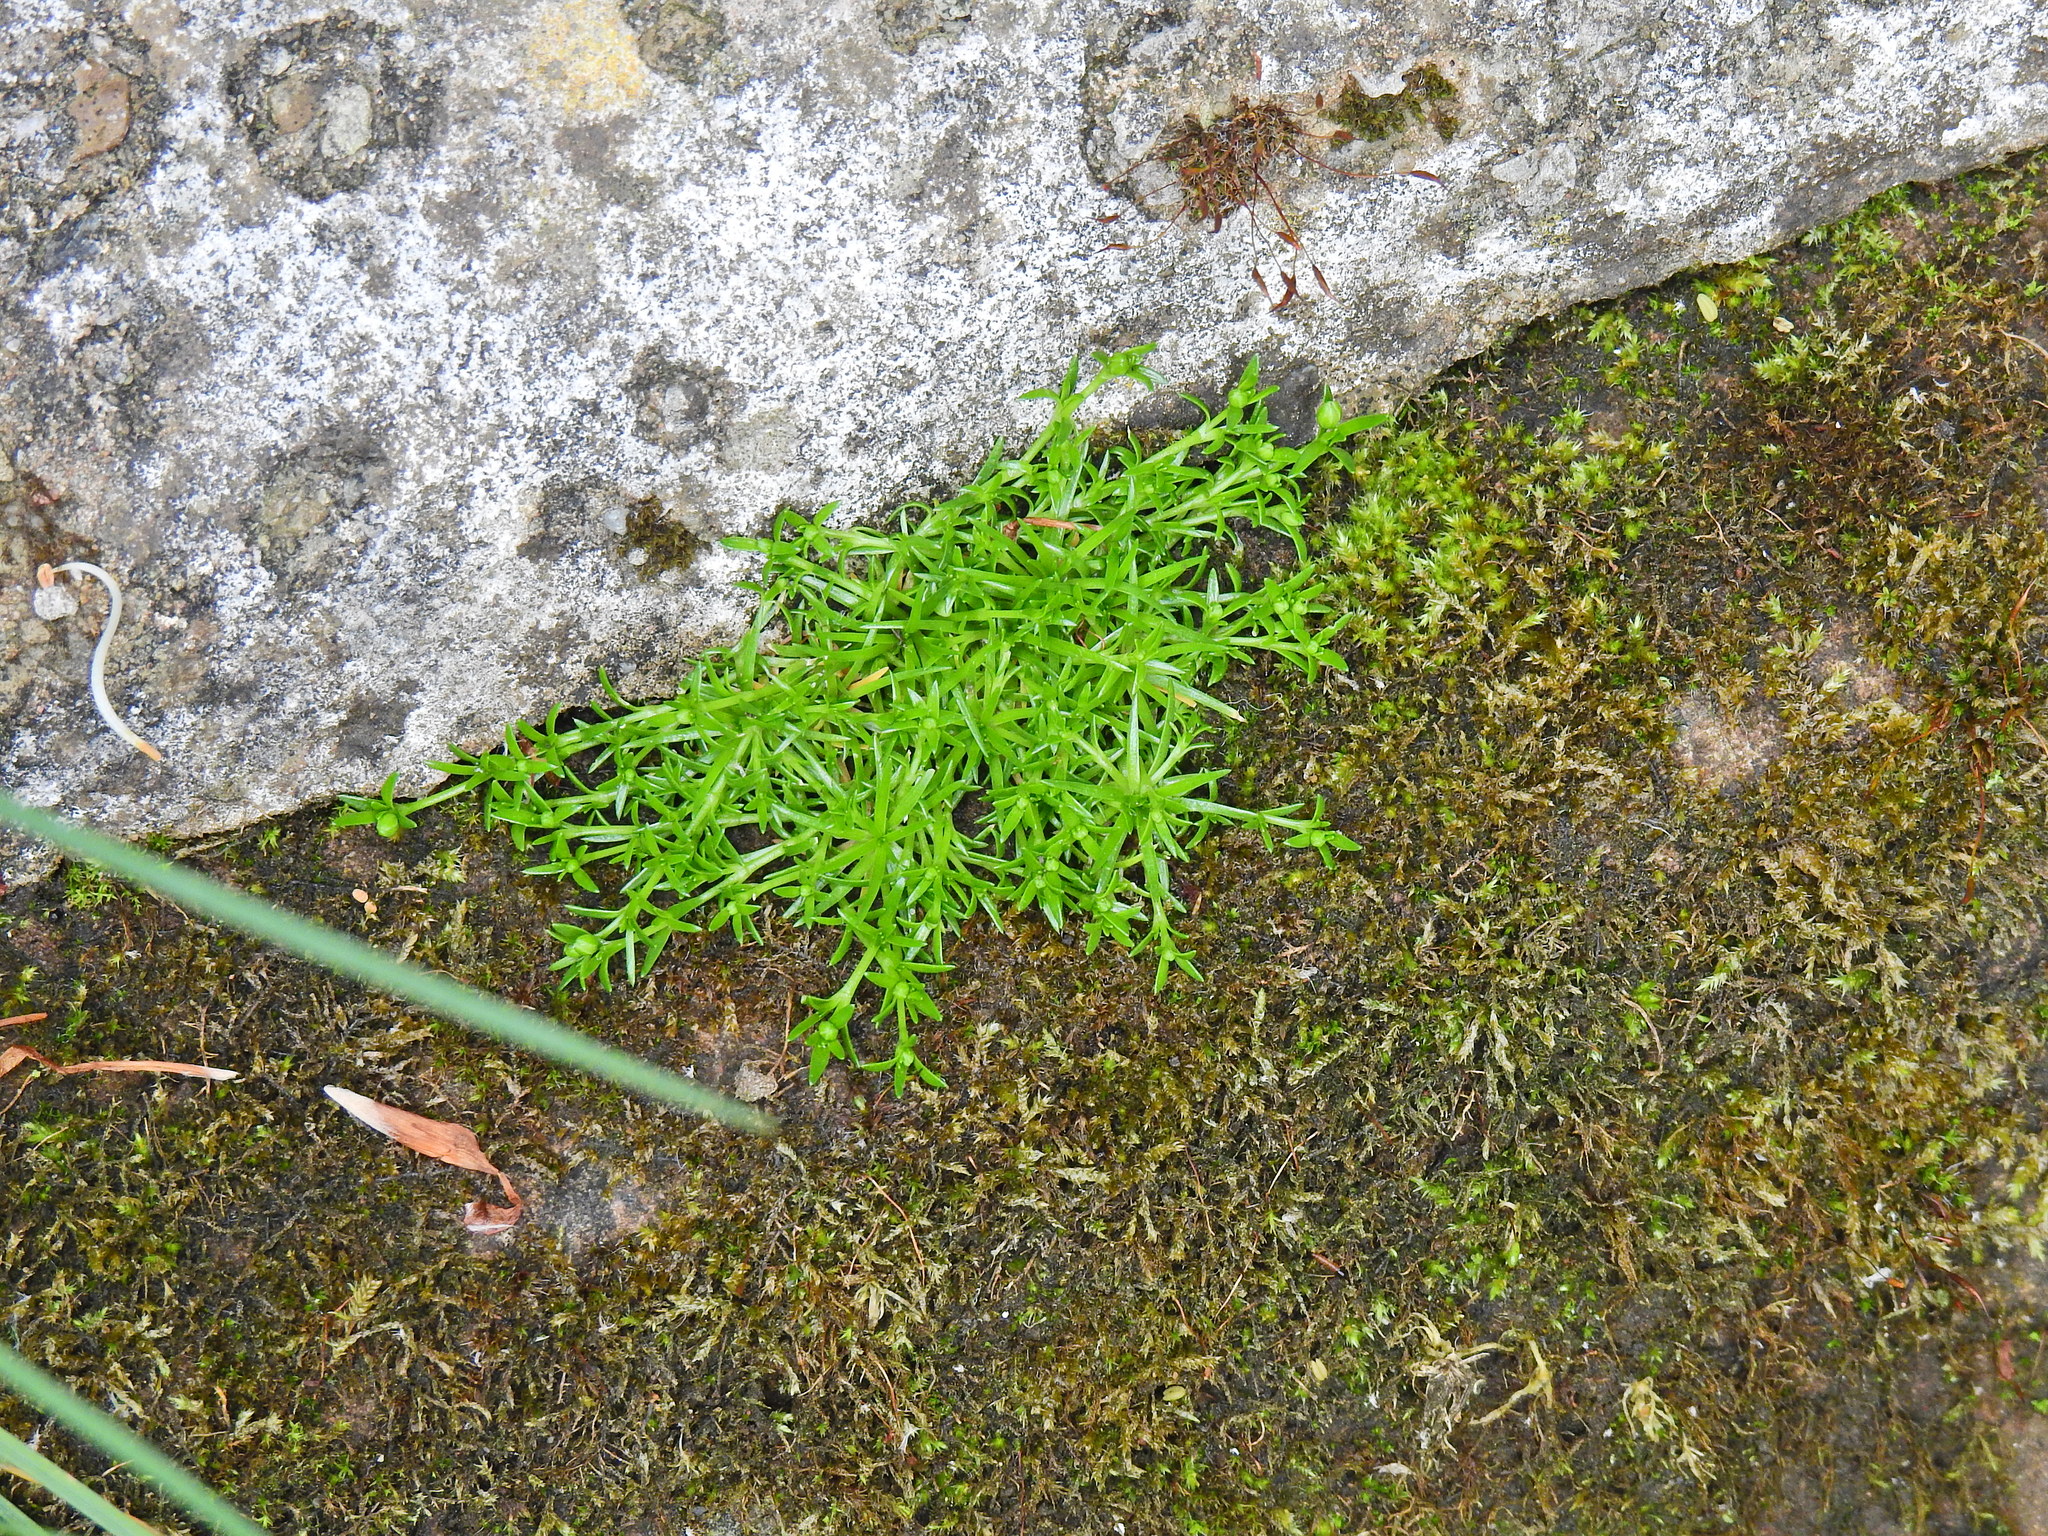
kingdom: Plantae
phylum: Tracheophyta
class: Magnoliopsida
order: Caryophyllales
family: Caryophyllaceae
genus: Sagina
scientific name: Sagina procumbens
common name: Procumbent pearlwort
